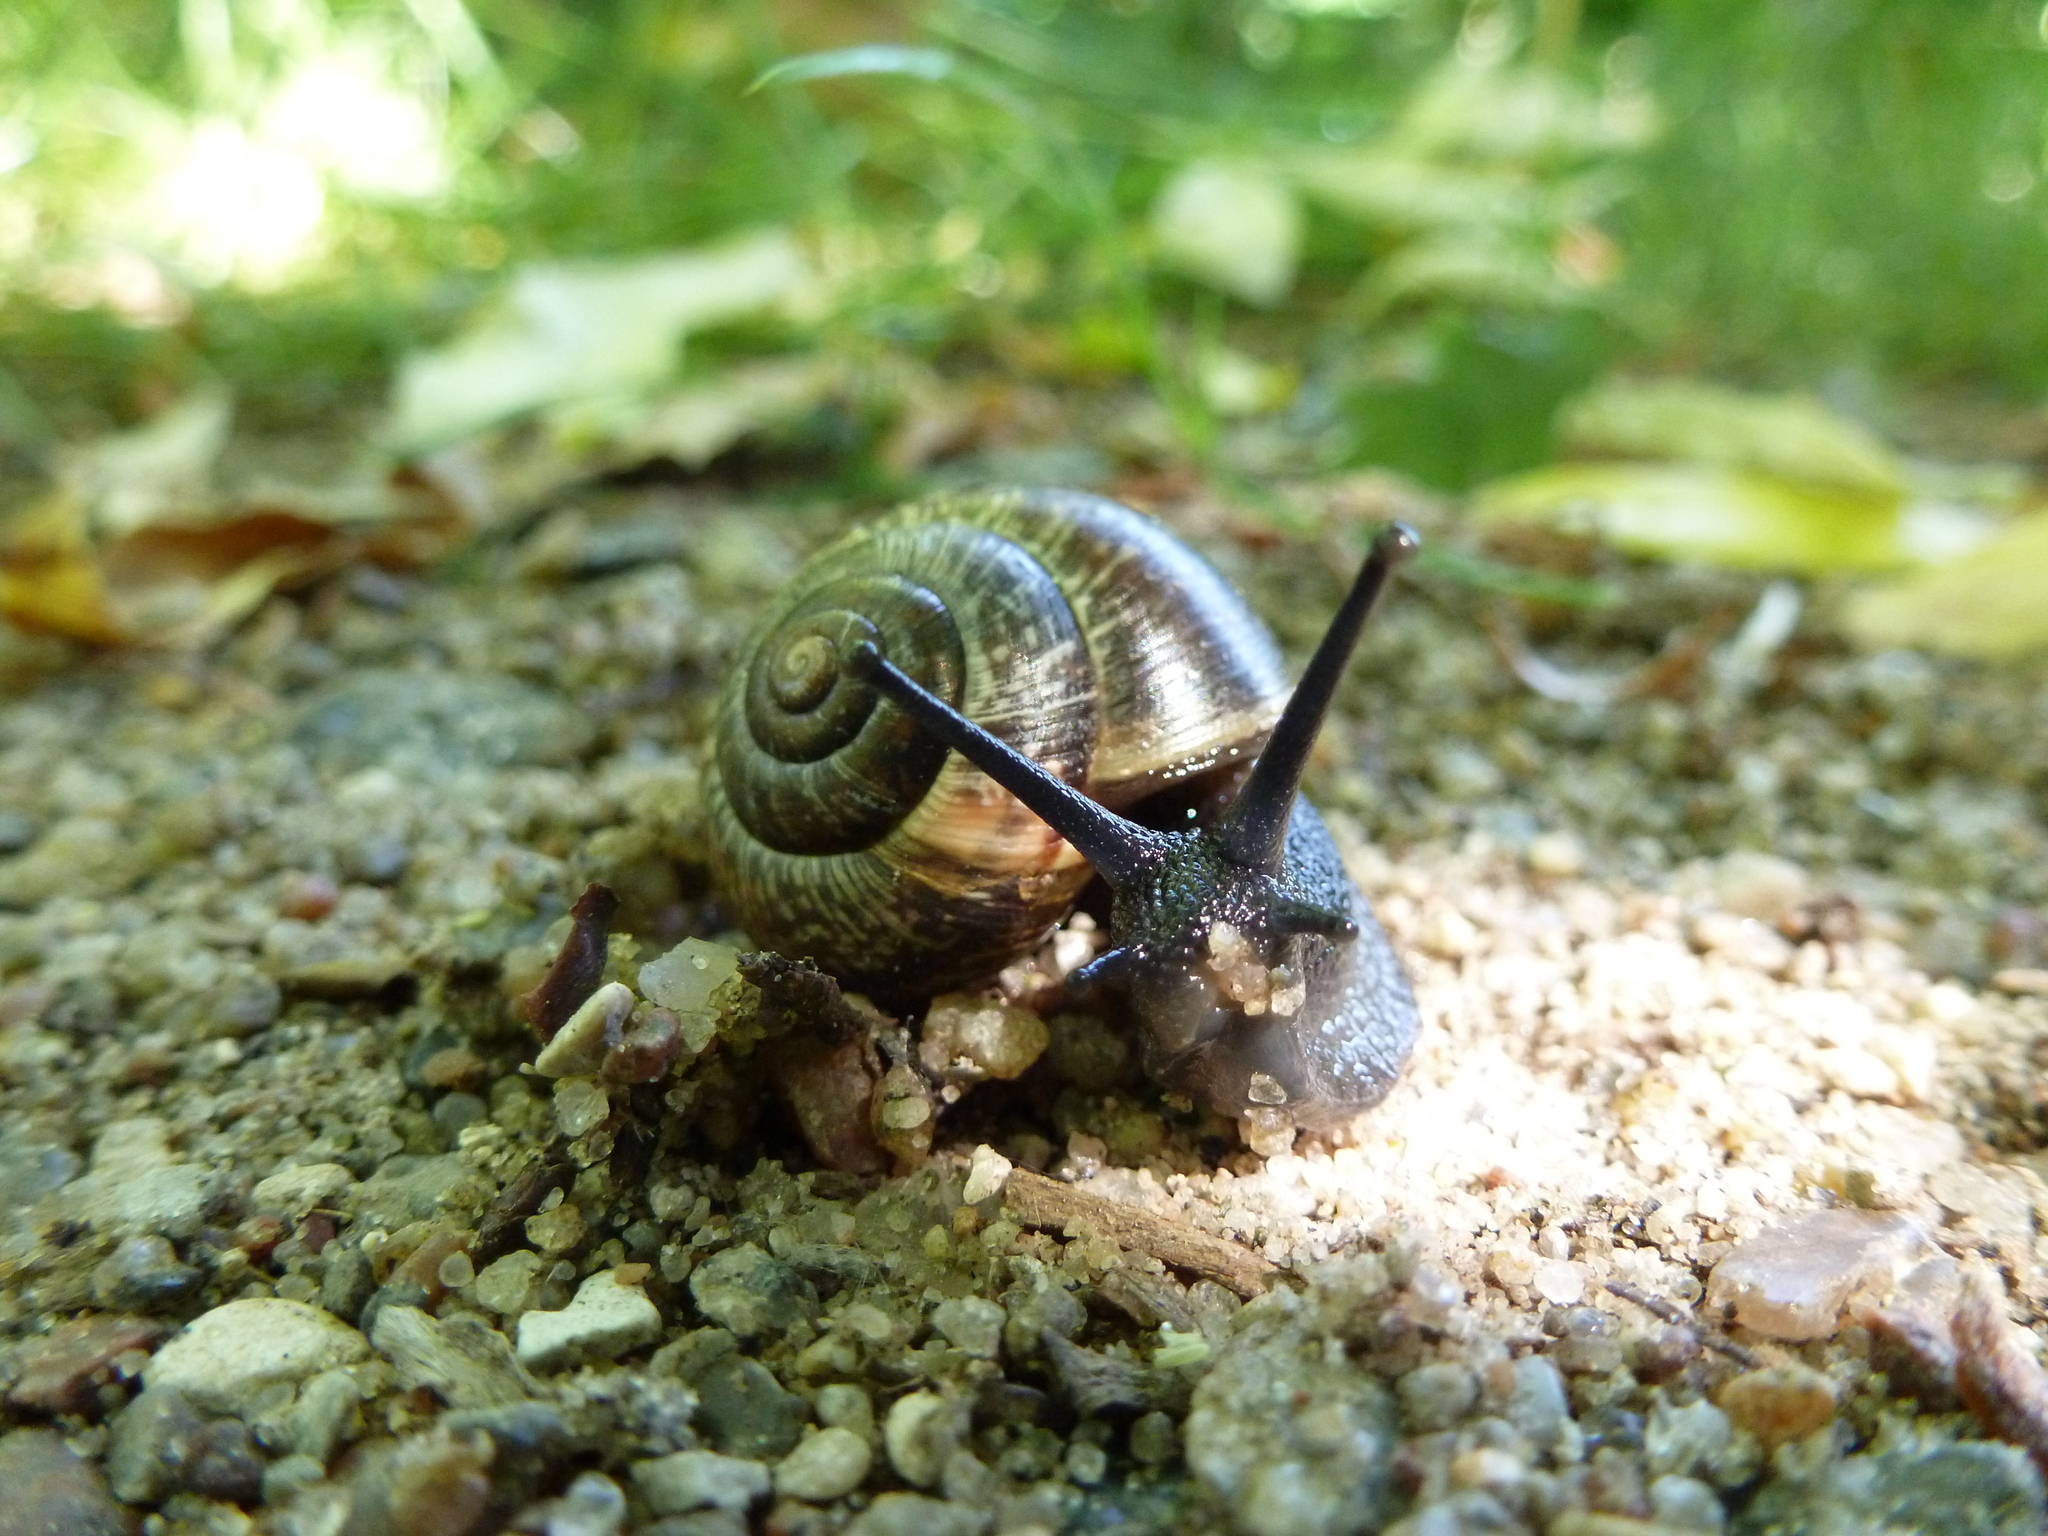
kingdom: Animalia
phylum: Mollusca
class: Gastropoda
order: Stylommatophora
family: Helicidae
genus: Arianta
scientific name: Arianta arbustorum
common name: Copse snail
